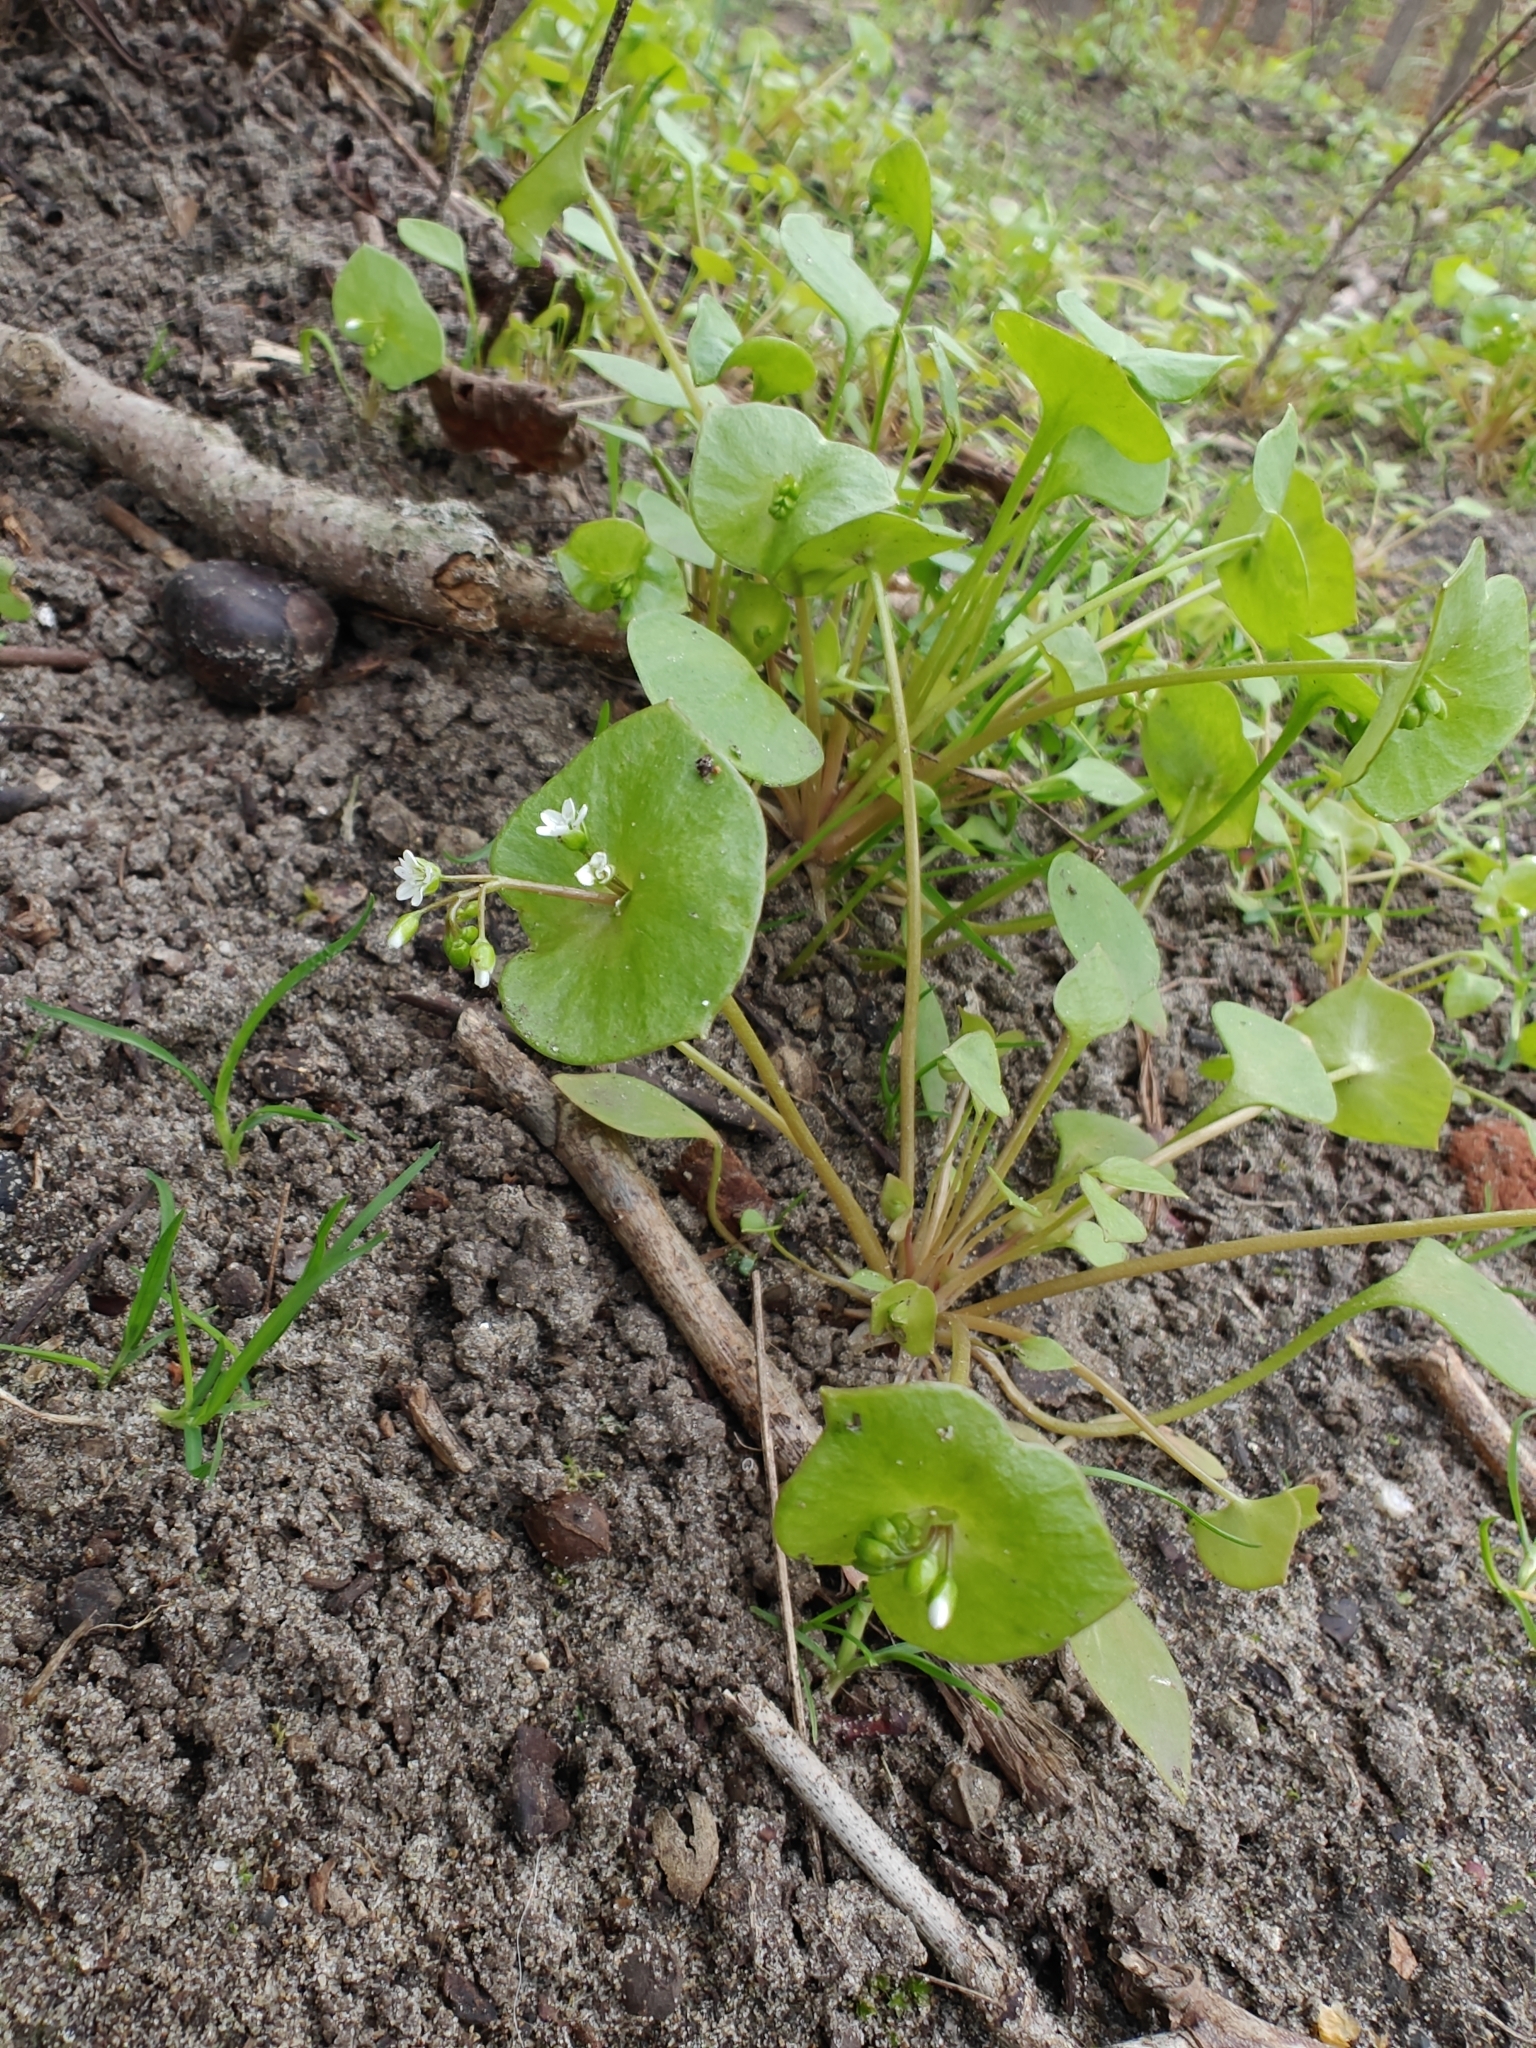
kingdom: Plantae
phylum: Tracheophyta
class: Magnoliopsida
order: Caryophyllales
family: Montiaceae
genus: Claytonia
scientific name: Claytonia perfoliata
